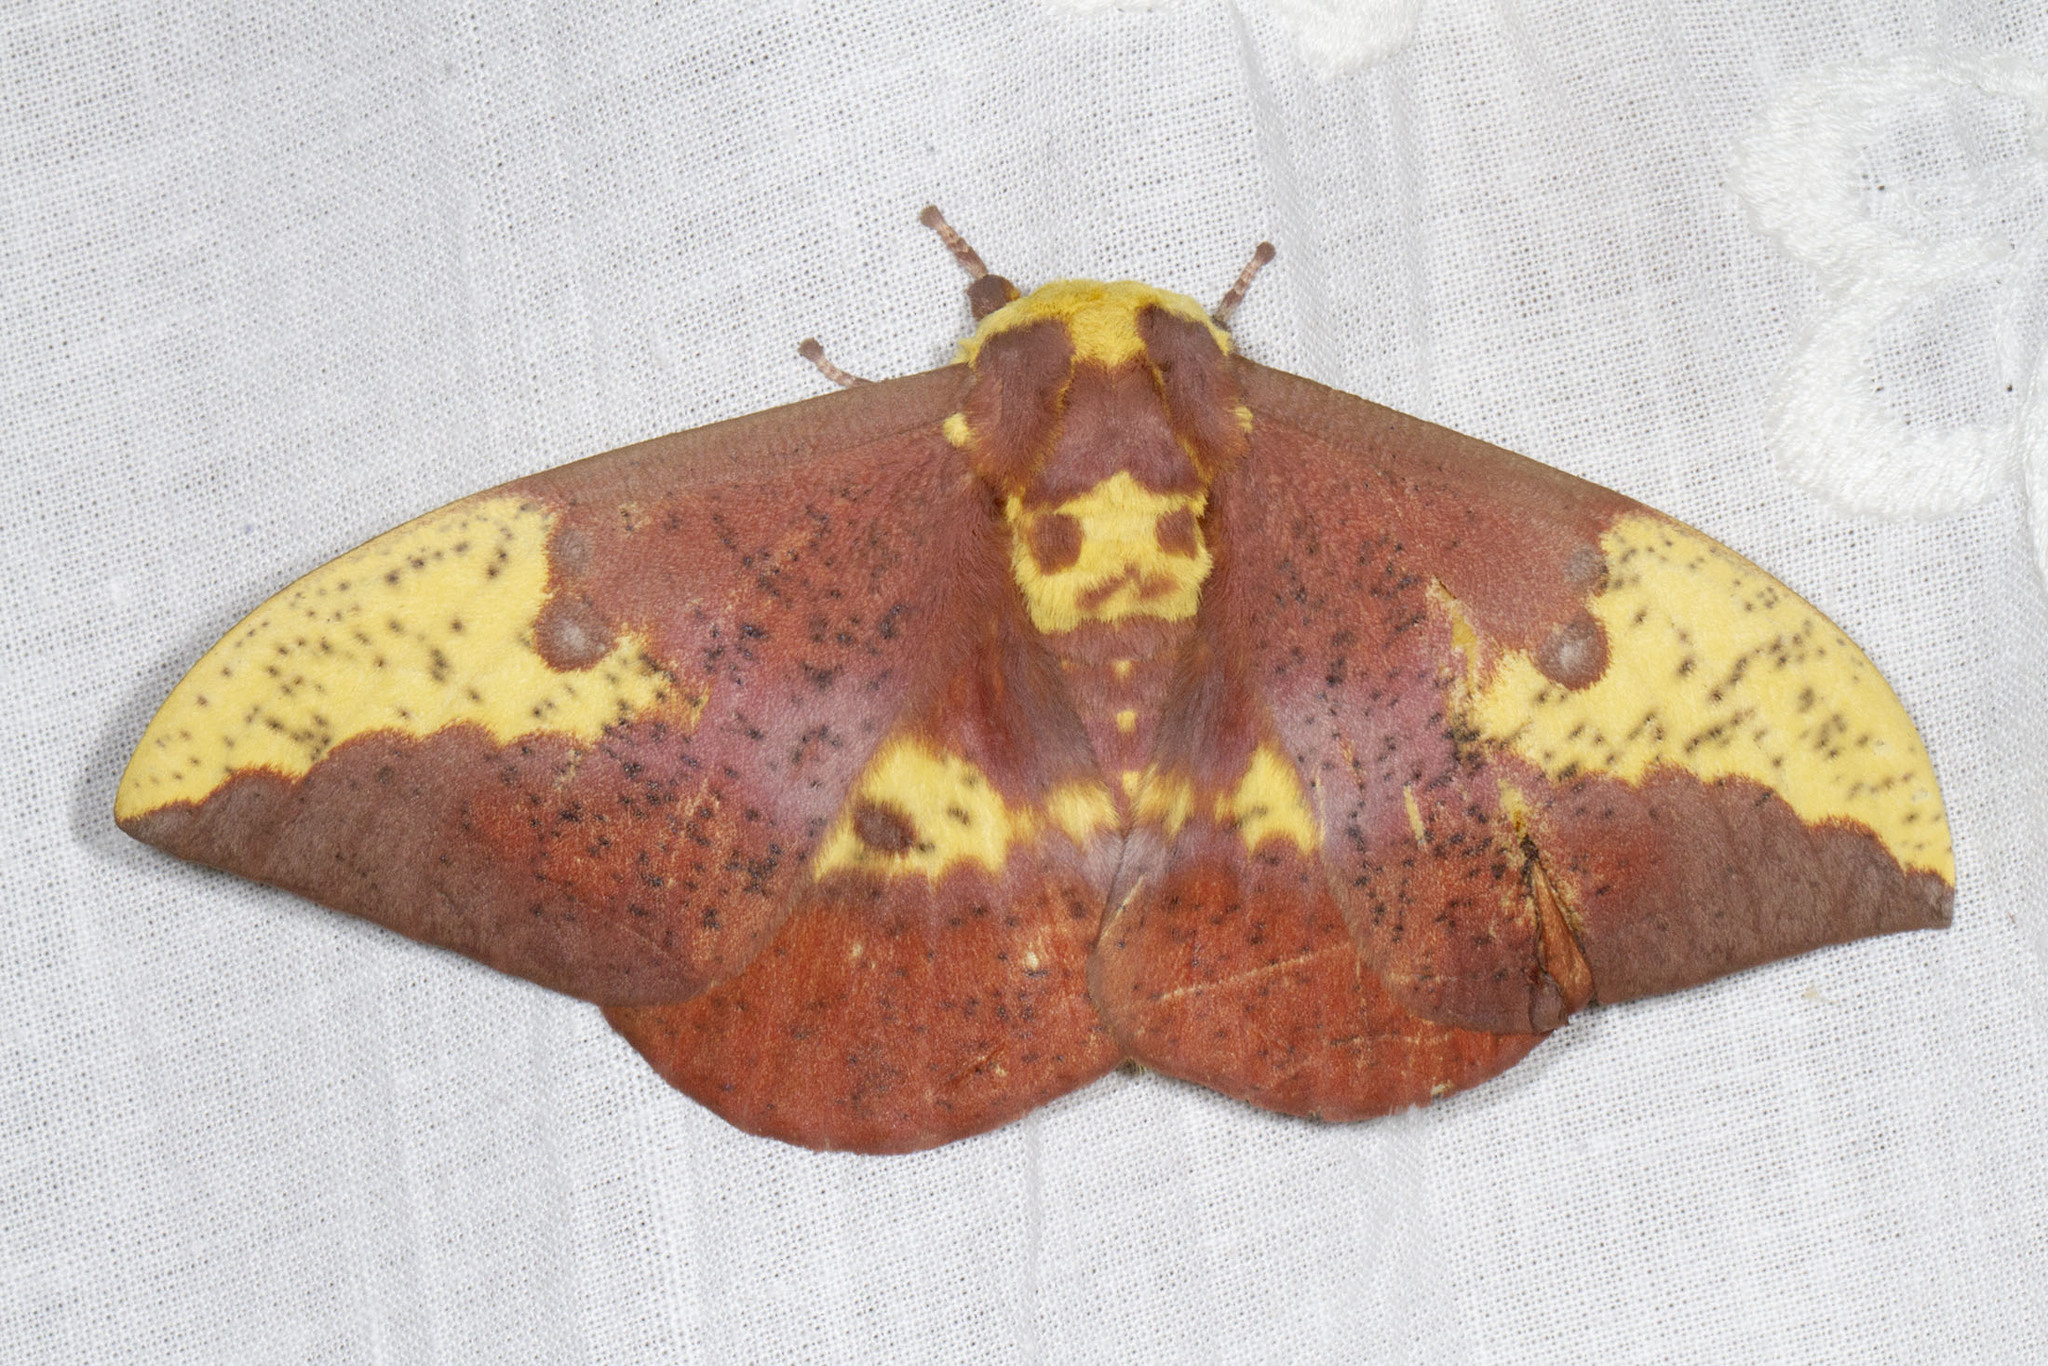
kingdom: Animalia
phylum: Arthropoda
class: Insecta
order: Lepidoptera
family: Saturniidae
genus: Eacles
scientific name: Eacles imperialis
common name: Imperial moth
